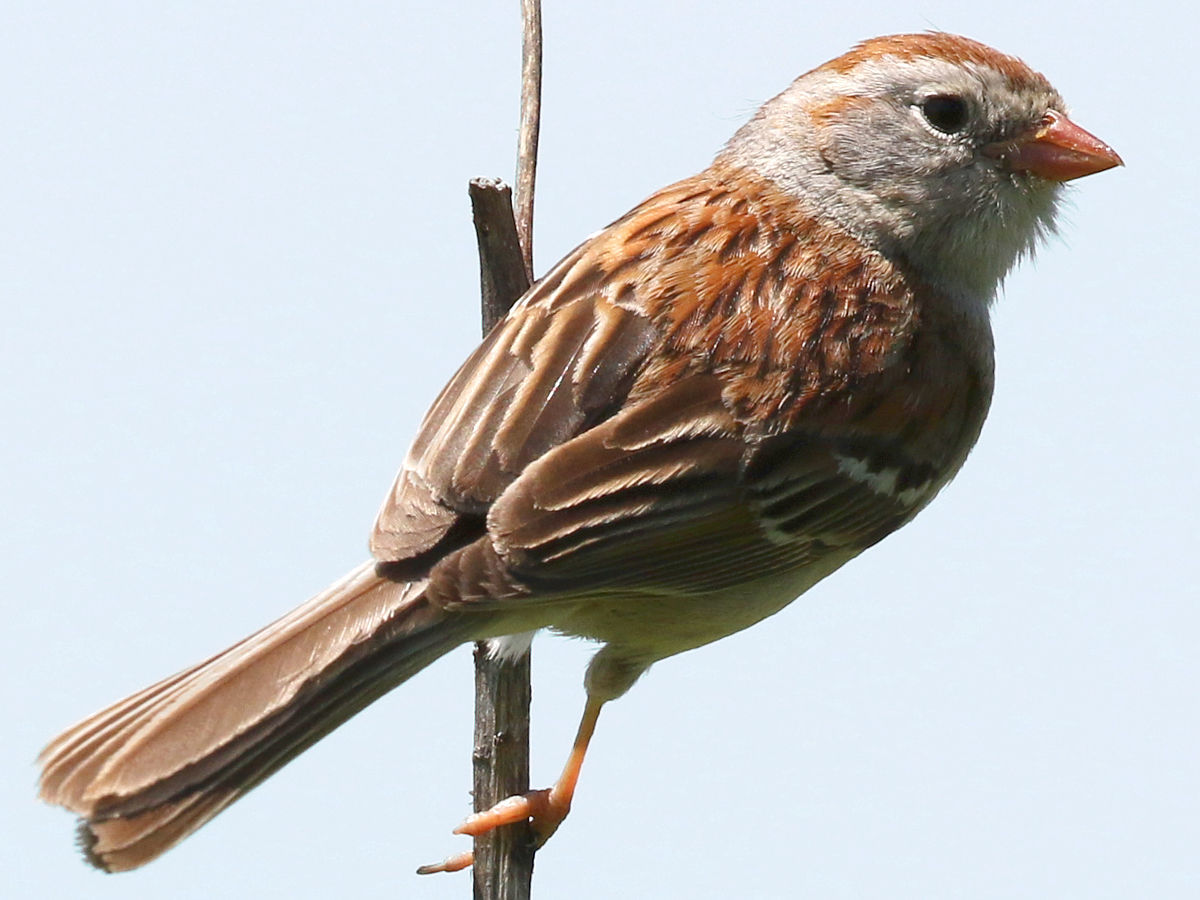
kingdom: Animalia
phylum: Chordata
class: Aves
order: Passeriformes
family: Passerellidae
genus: Spizella
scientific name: Spizella pusilla
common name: Field sparrow
